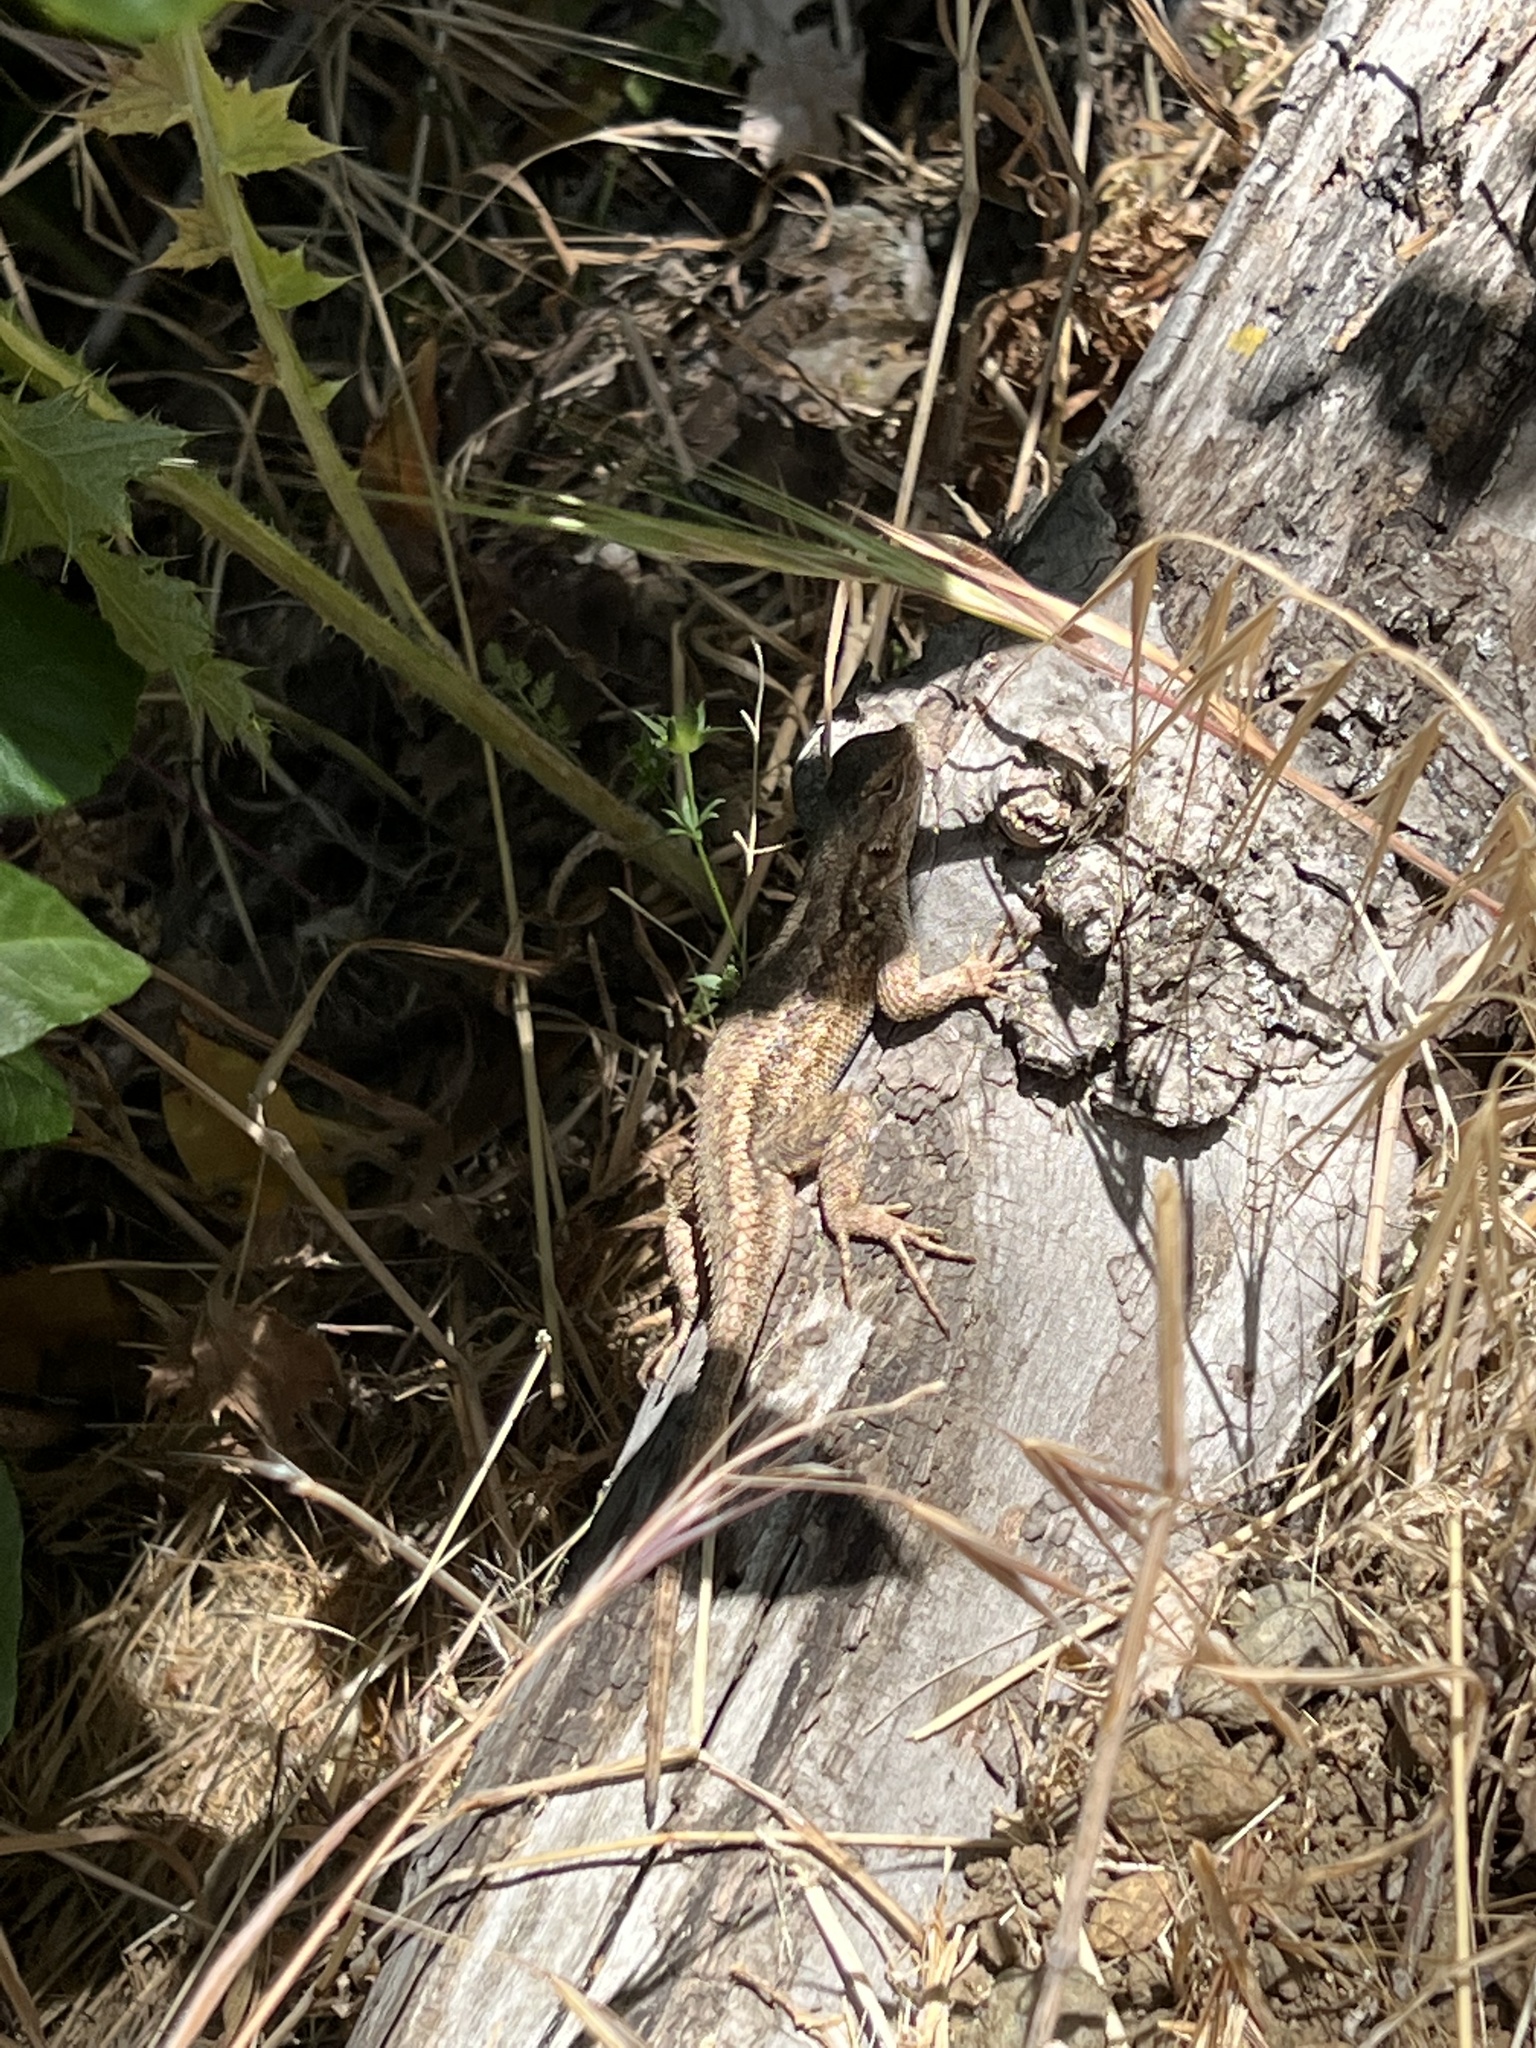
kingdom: Animalia
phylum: Chordata
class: Squamata
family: Phrynosomatidae
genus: Sceloporus
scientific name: Sceloporus occidentalis
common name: Western fence lizard
